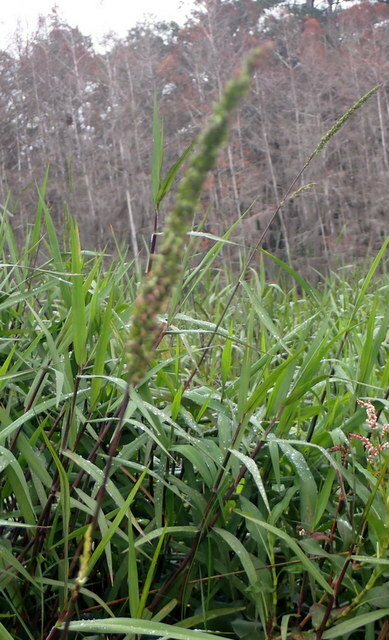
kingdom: Plantae
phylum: Tracheophyta
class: Liliopsida
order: Poales
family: Poaceae
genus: Sacciolepis
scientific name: Sacciolepis striata
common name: American cupscale
